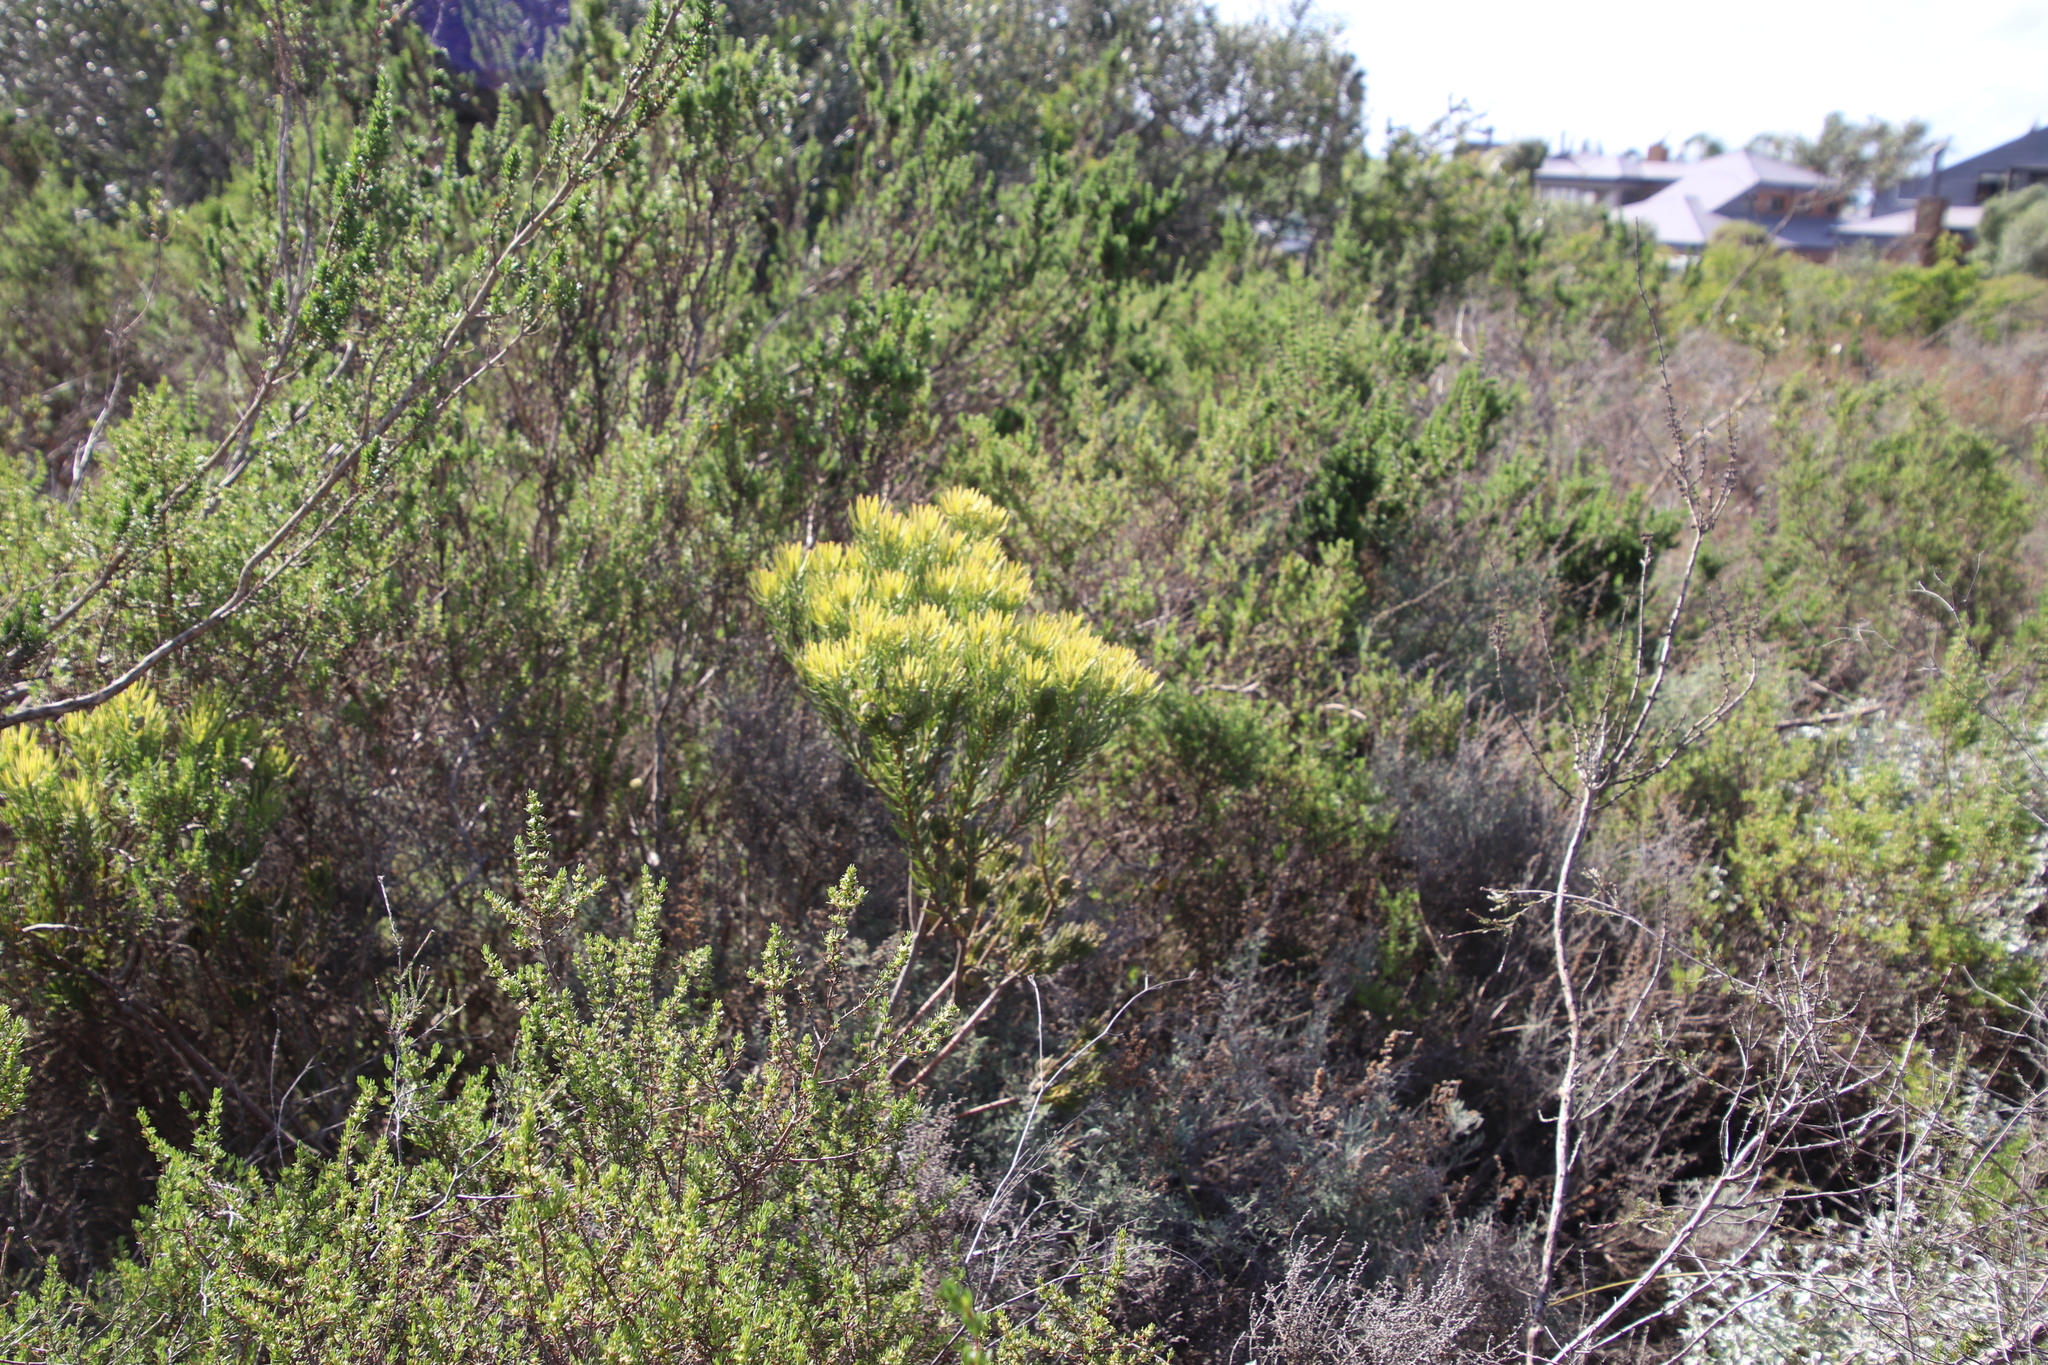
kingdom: Plantae
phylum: Tracheophyta
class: Magnoliopsida
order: Proteales
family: Proteaceae
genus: Leucadendron
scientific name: Leucadendron lanigerum
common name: Shale conebush
